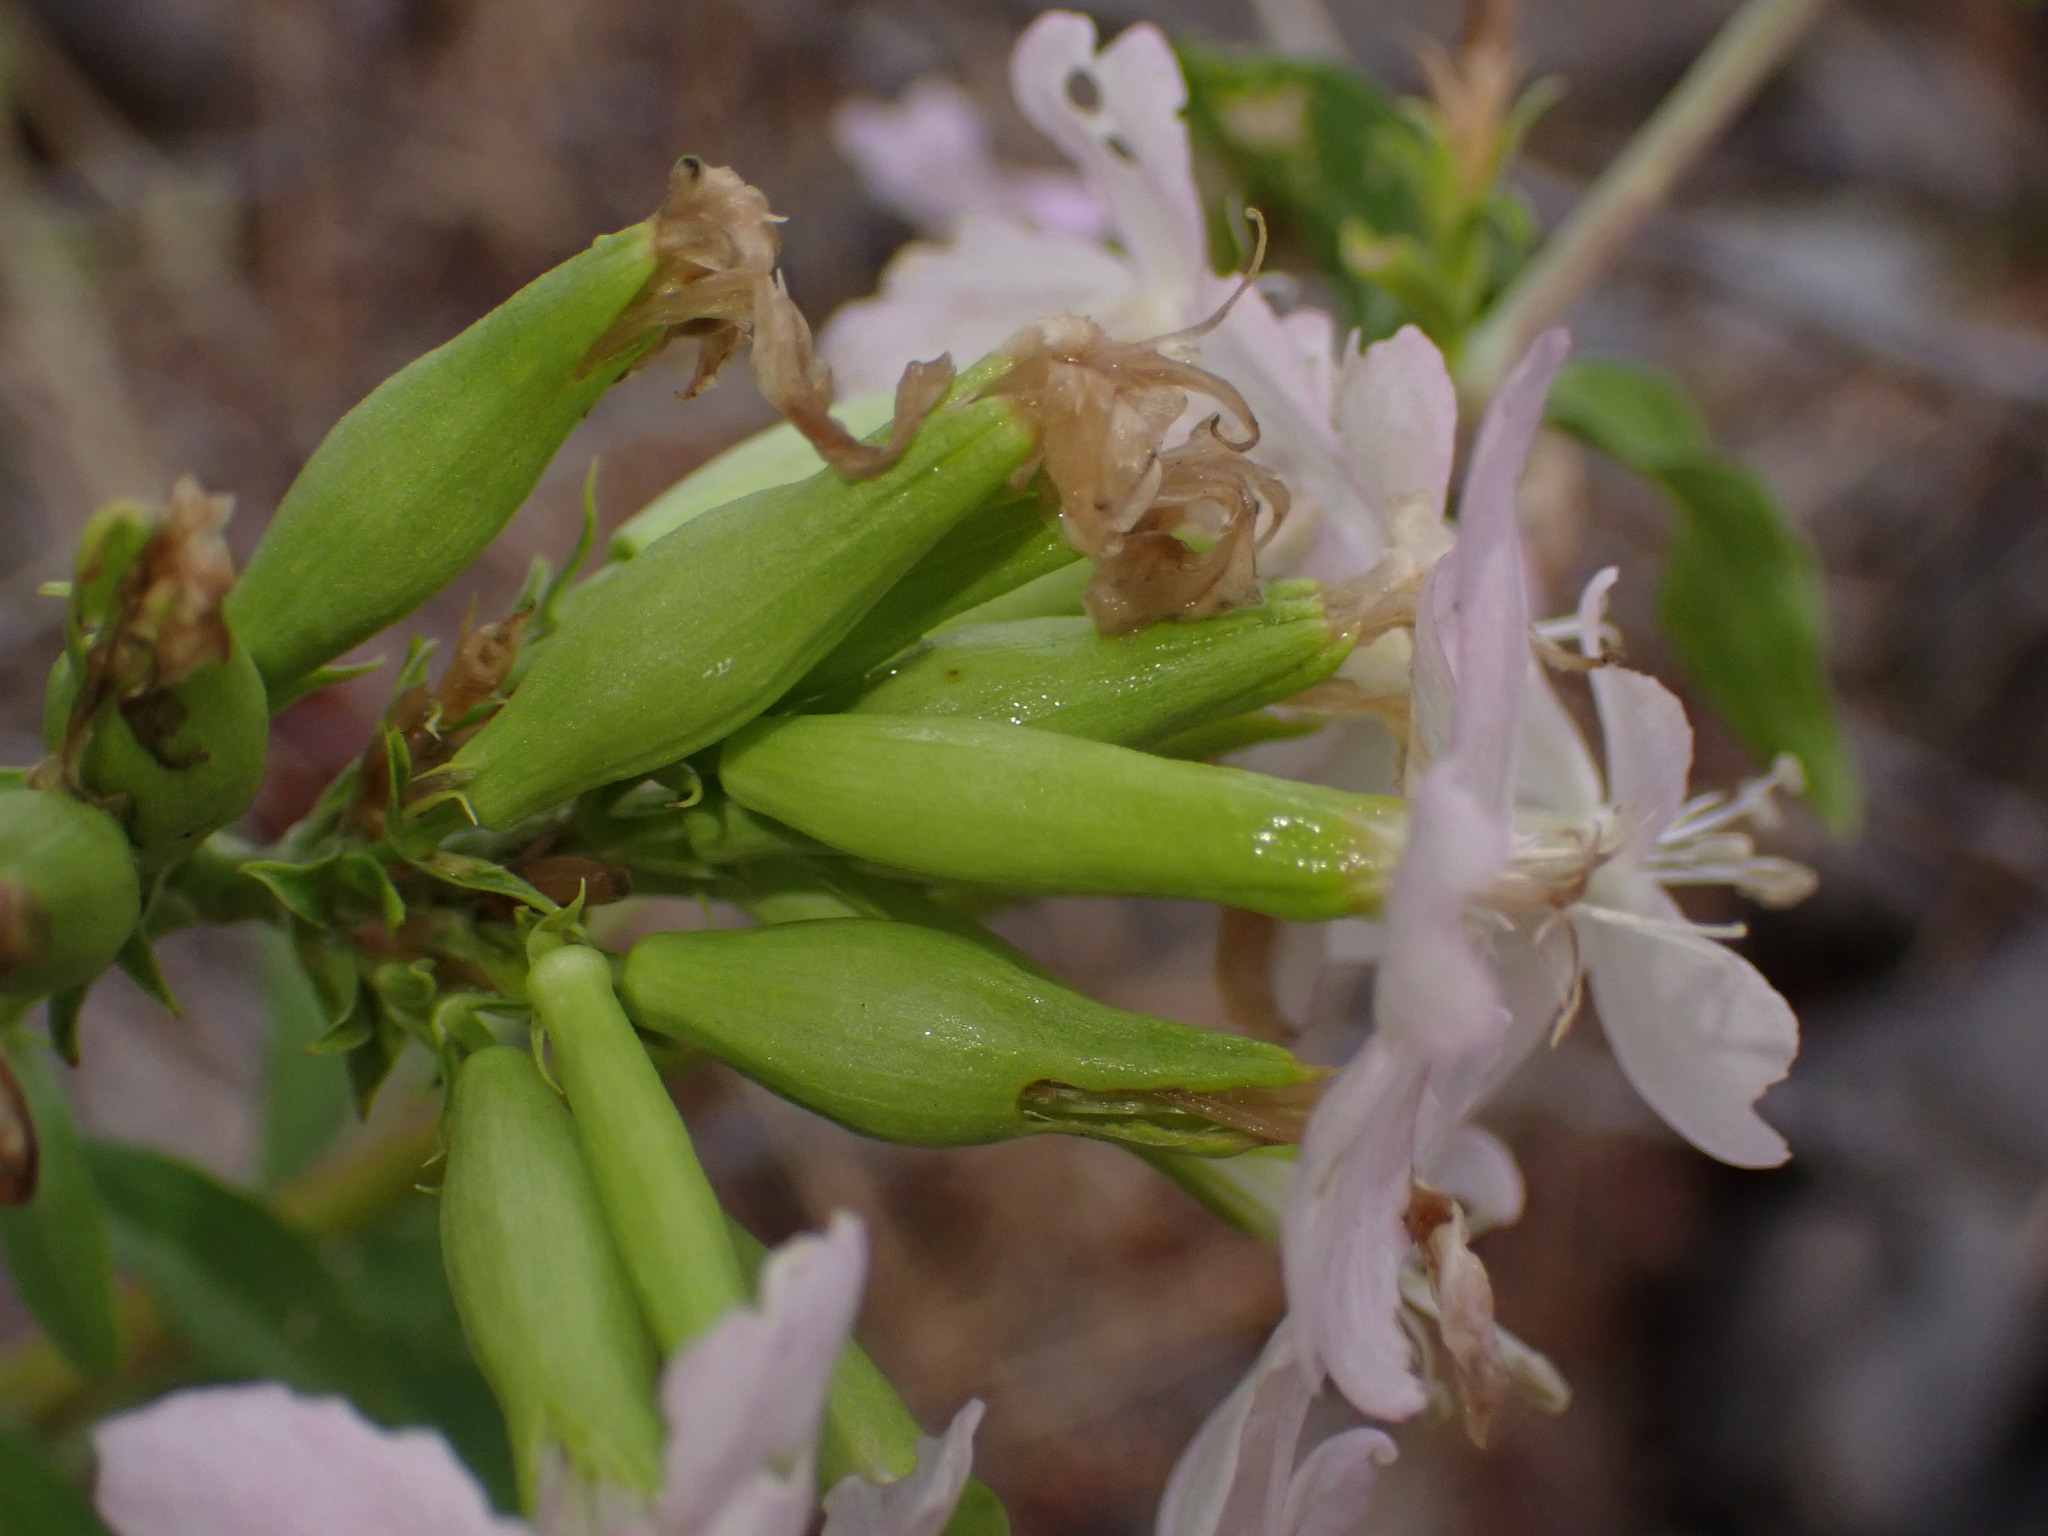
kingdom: Plantae
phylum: Tracheophyta
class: Magnoliopsida
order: Caryophyllales
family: Caryophyllaceae
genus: Saponaria
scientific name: Saponaria officinalis
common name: Soapwort
